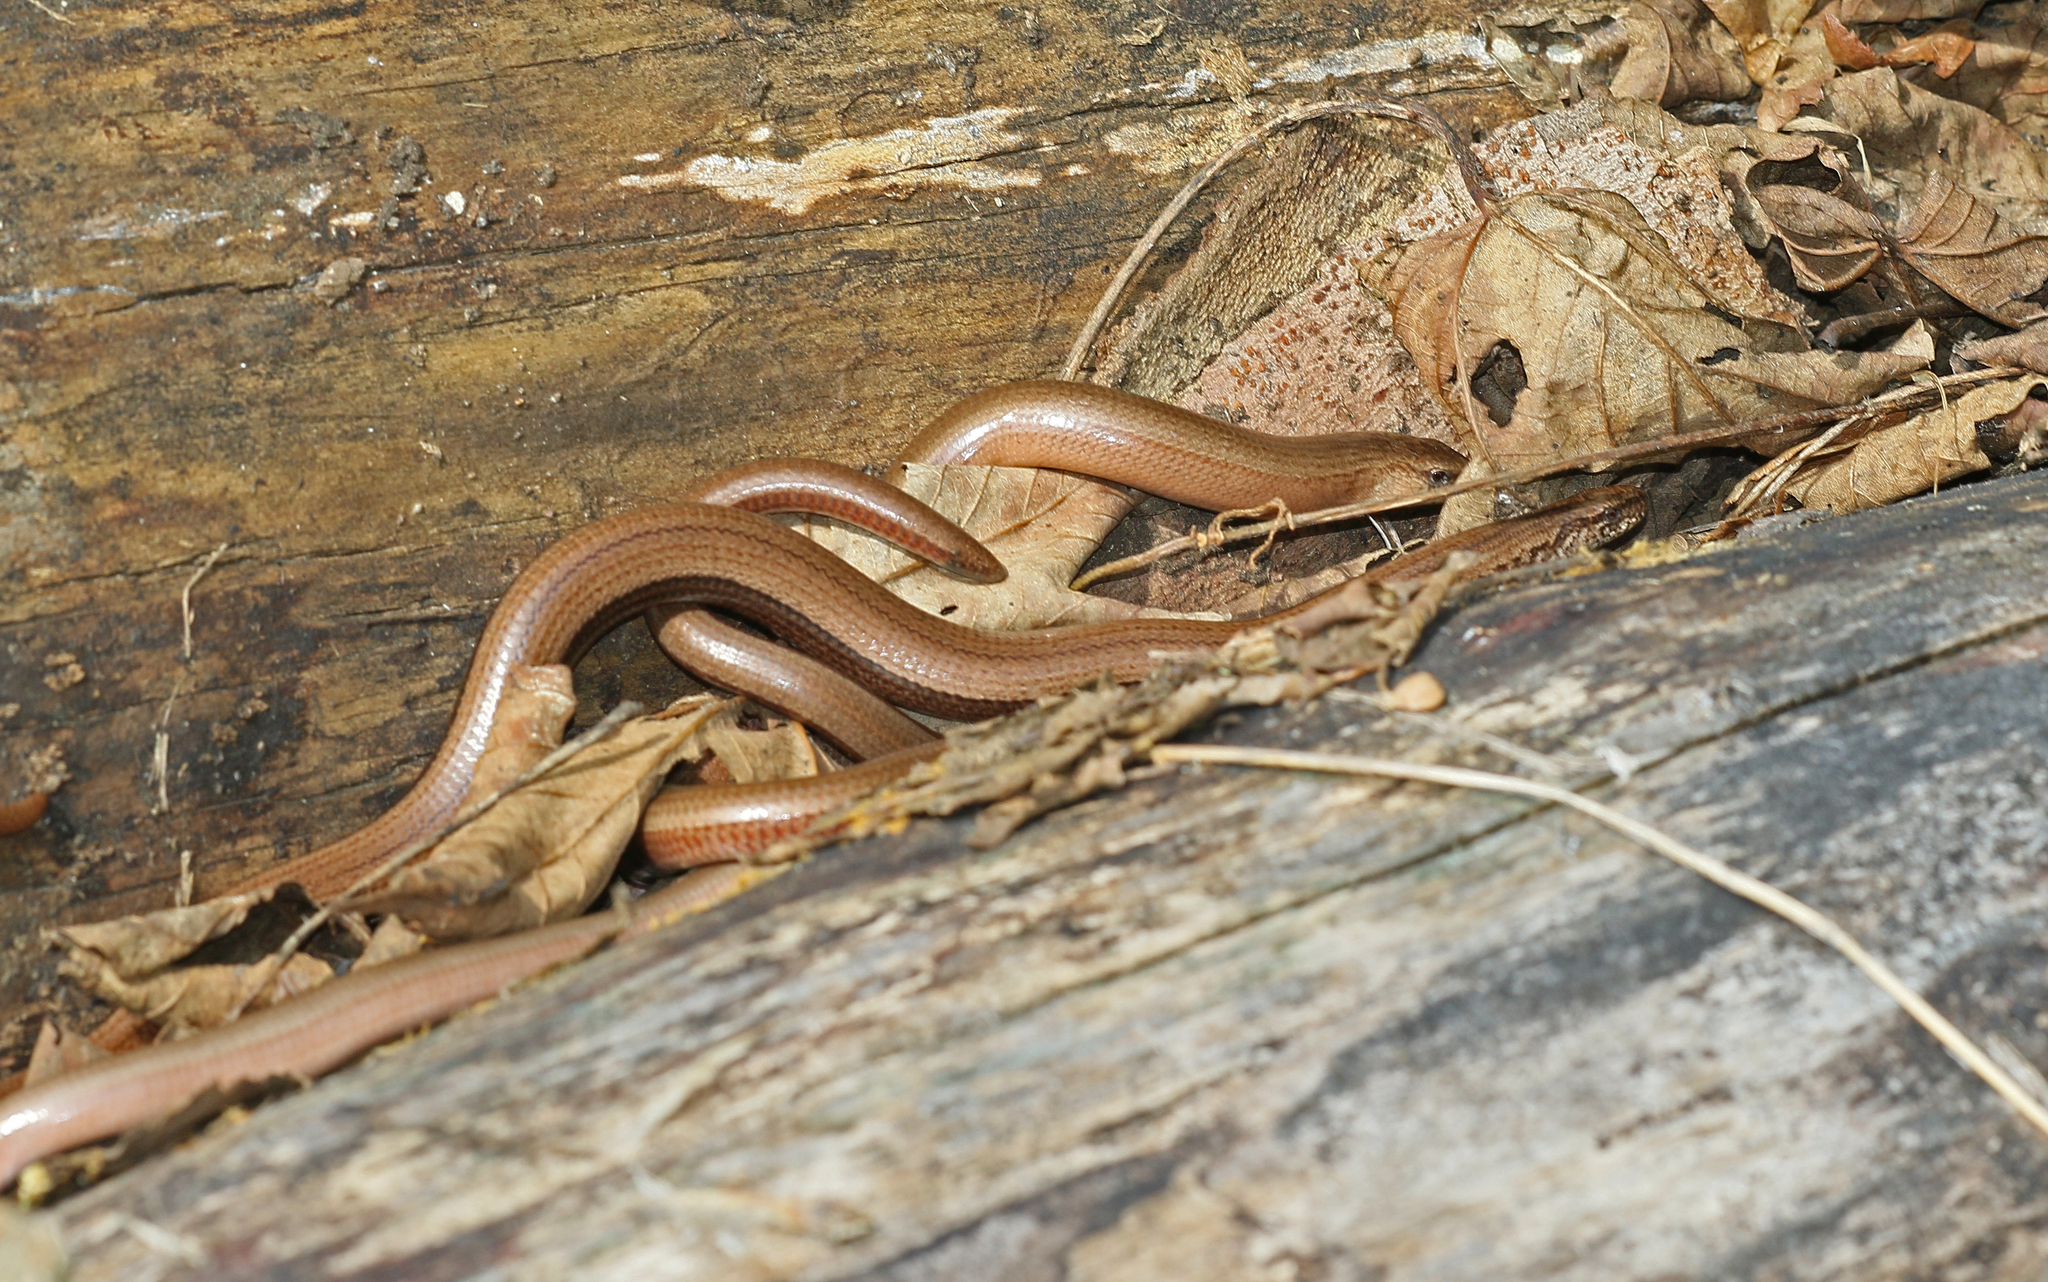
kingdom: Animalia
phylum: Chordata
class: Squamata
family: Anguidae
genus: Anguis
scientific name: Anguis fragilis
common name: Slow worm
